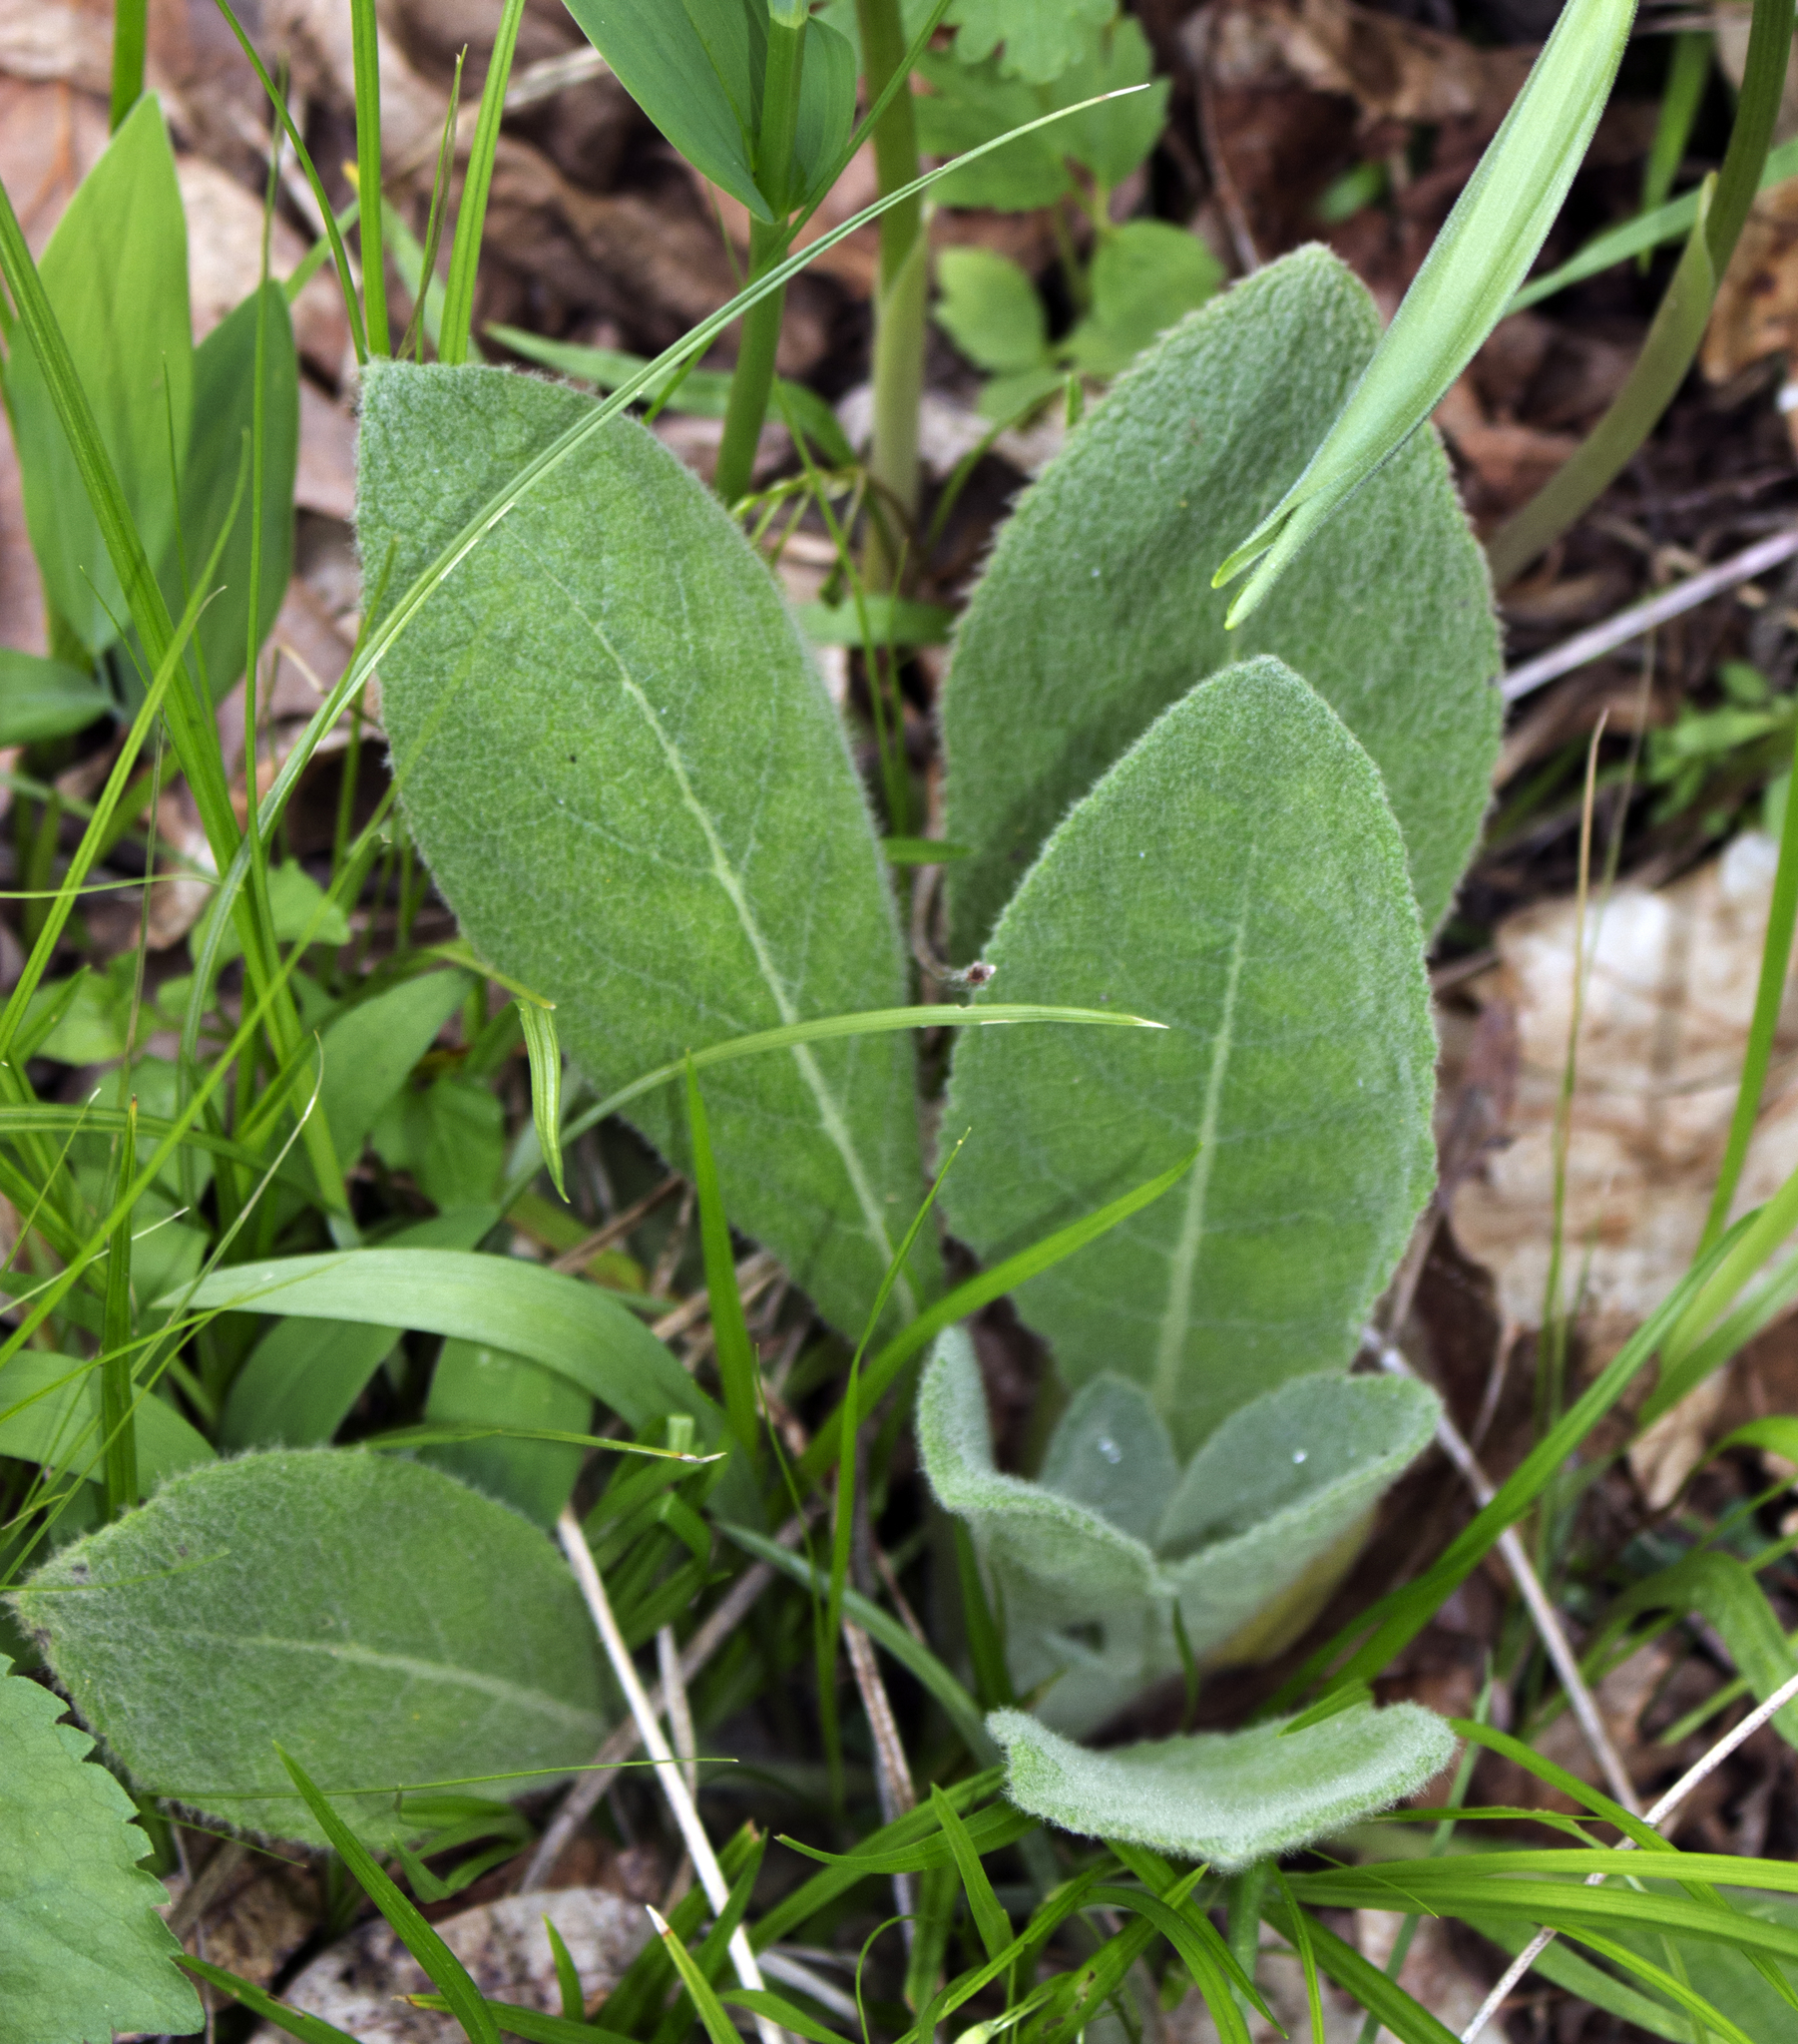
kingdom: Plantae
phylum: Tracheophyta
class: Magnoliopsida
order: Lamiales
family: Scrophulariaceae
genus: Verbascum
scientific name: Verbascum thapsus
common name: Common mullein
